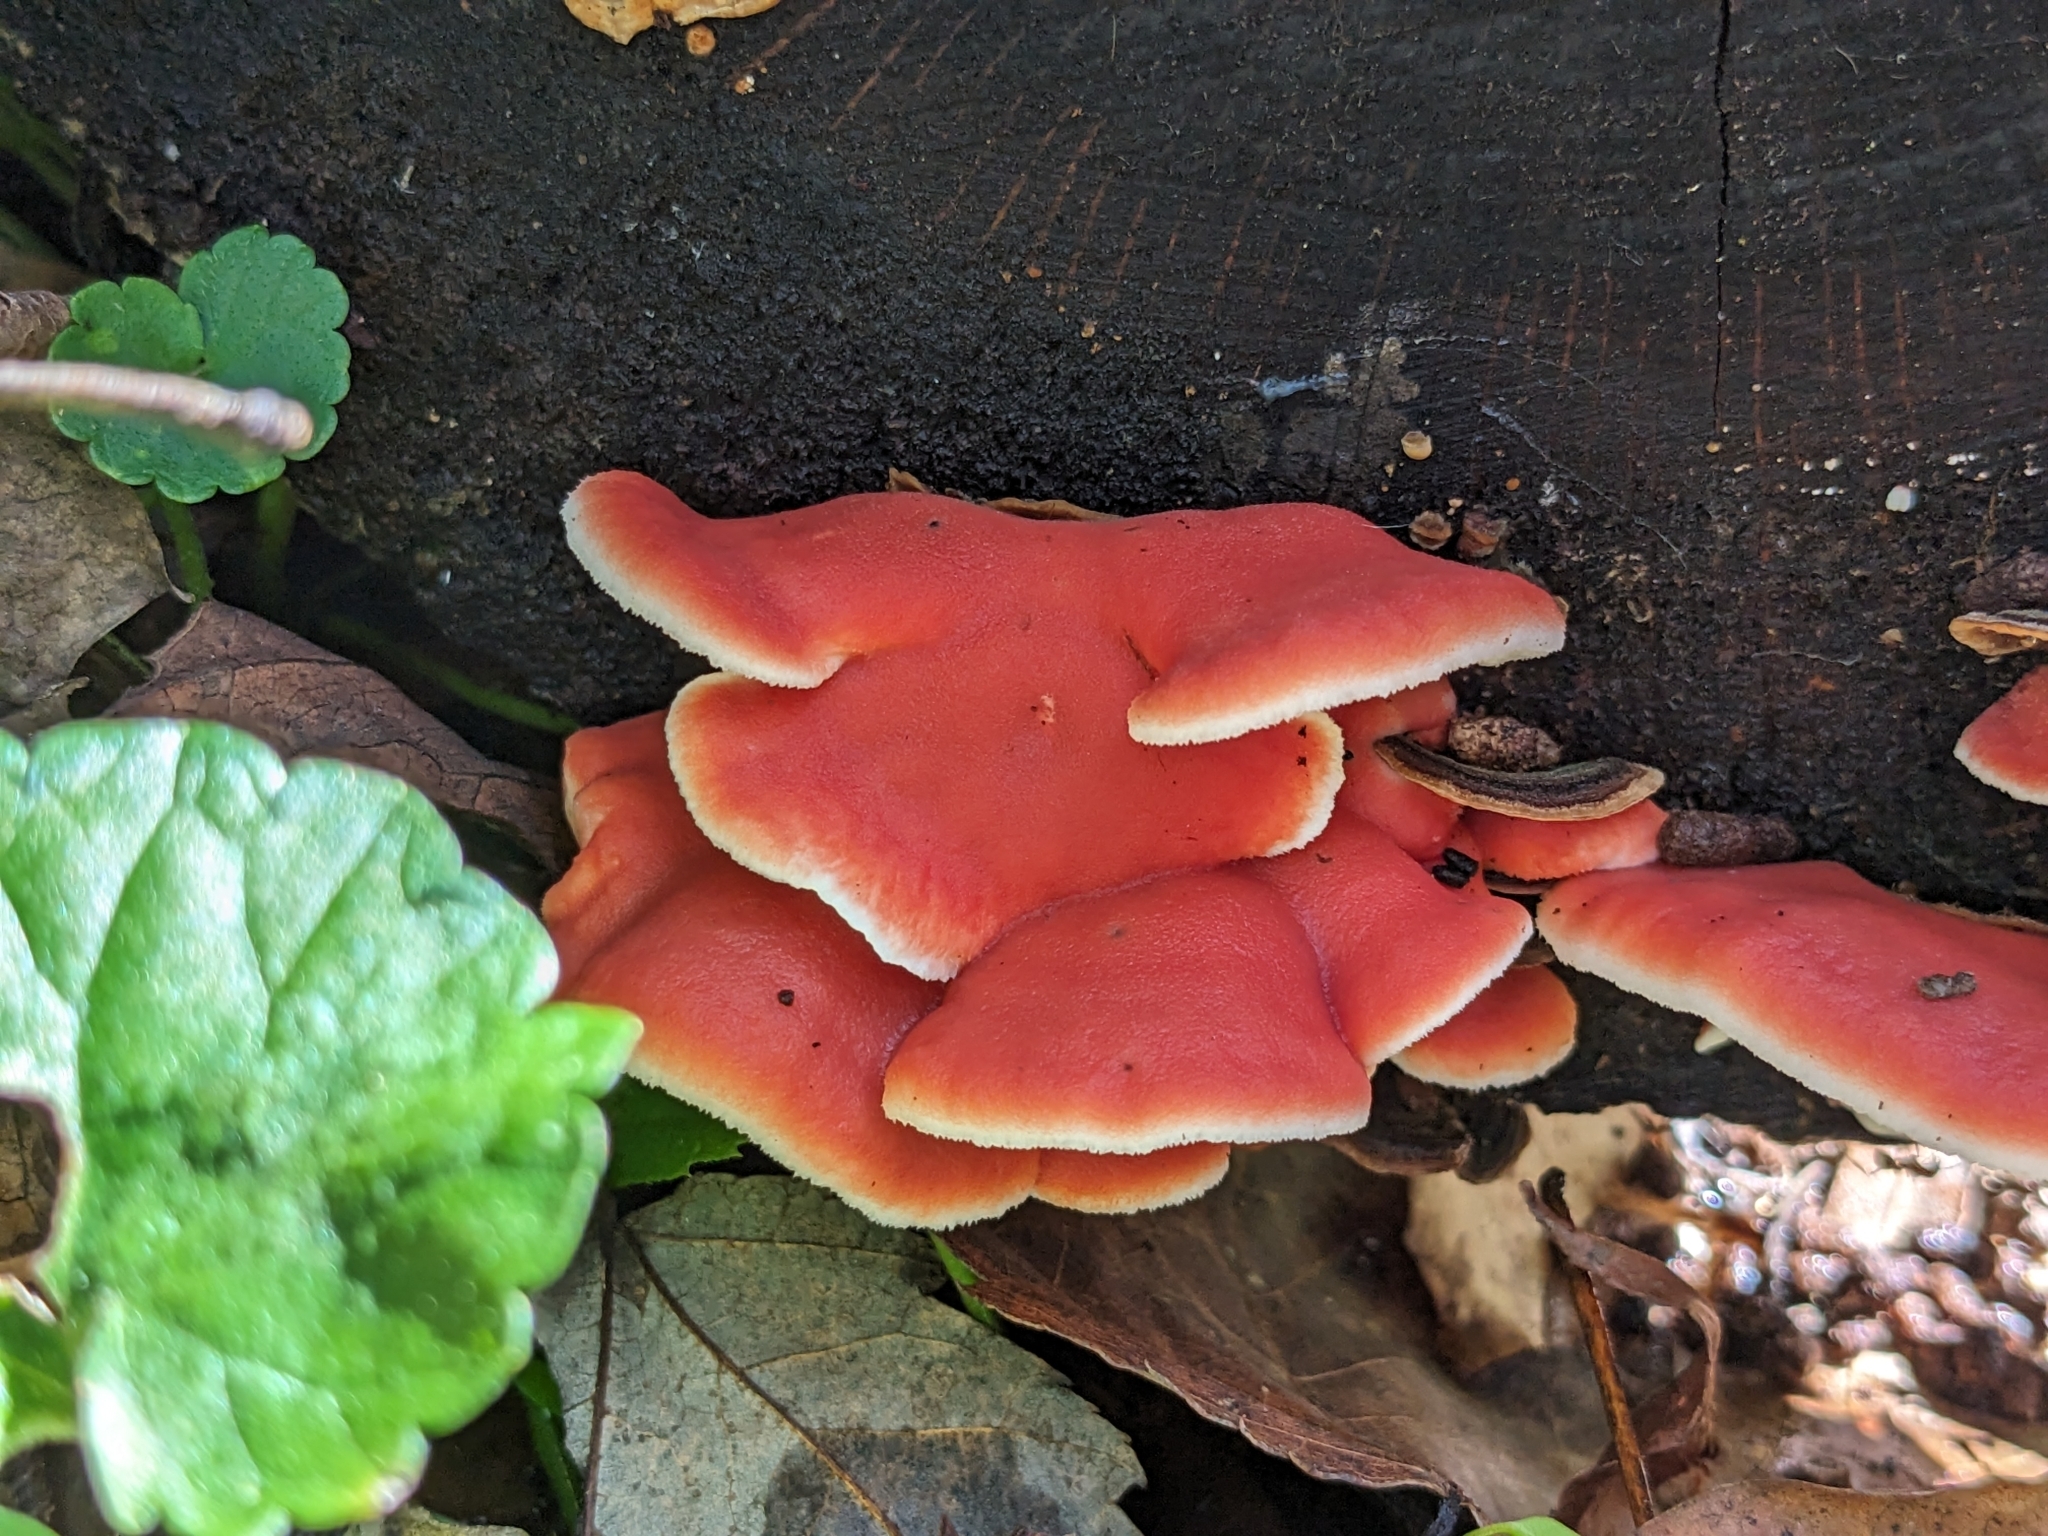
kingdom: Fungi
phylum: Basidiomycota
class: Agaricomycetes
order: Polyporales
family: Irpicaceae
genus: Byssomerulius
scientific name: Byssomerulius incarnatus
